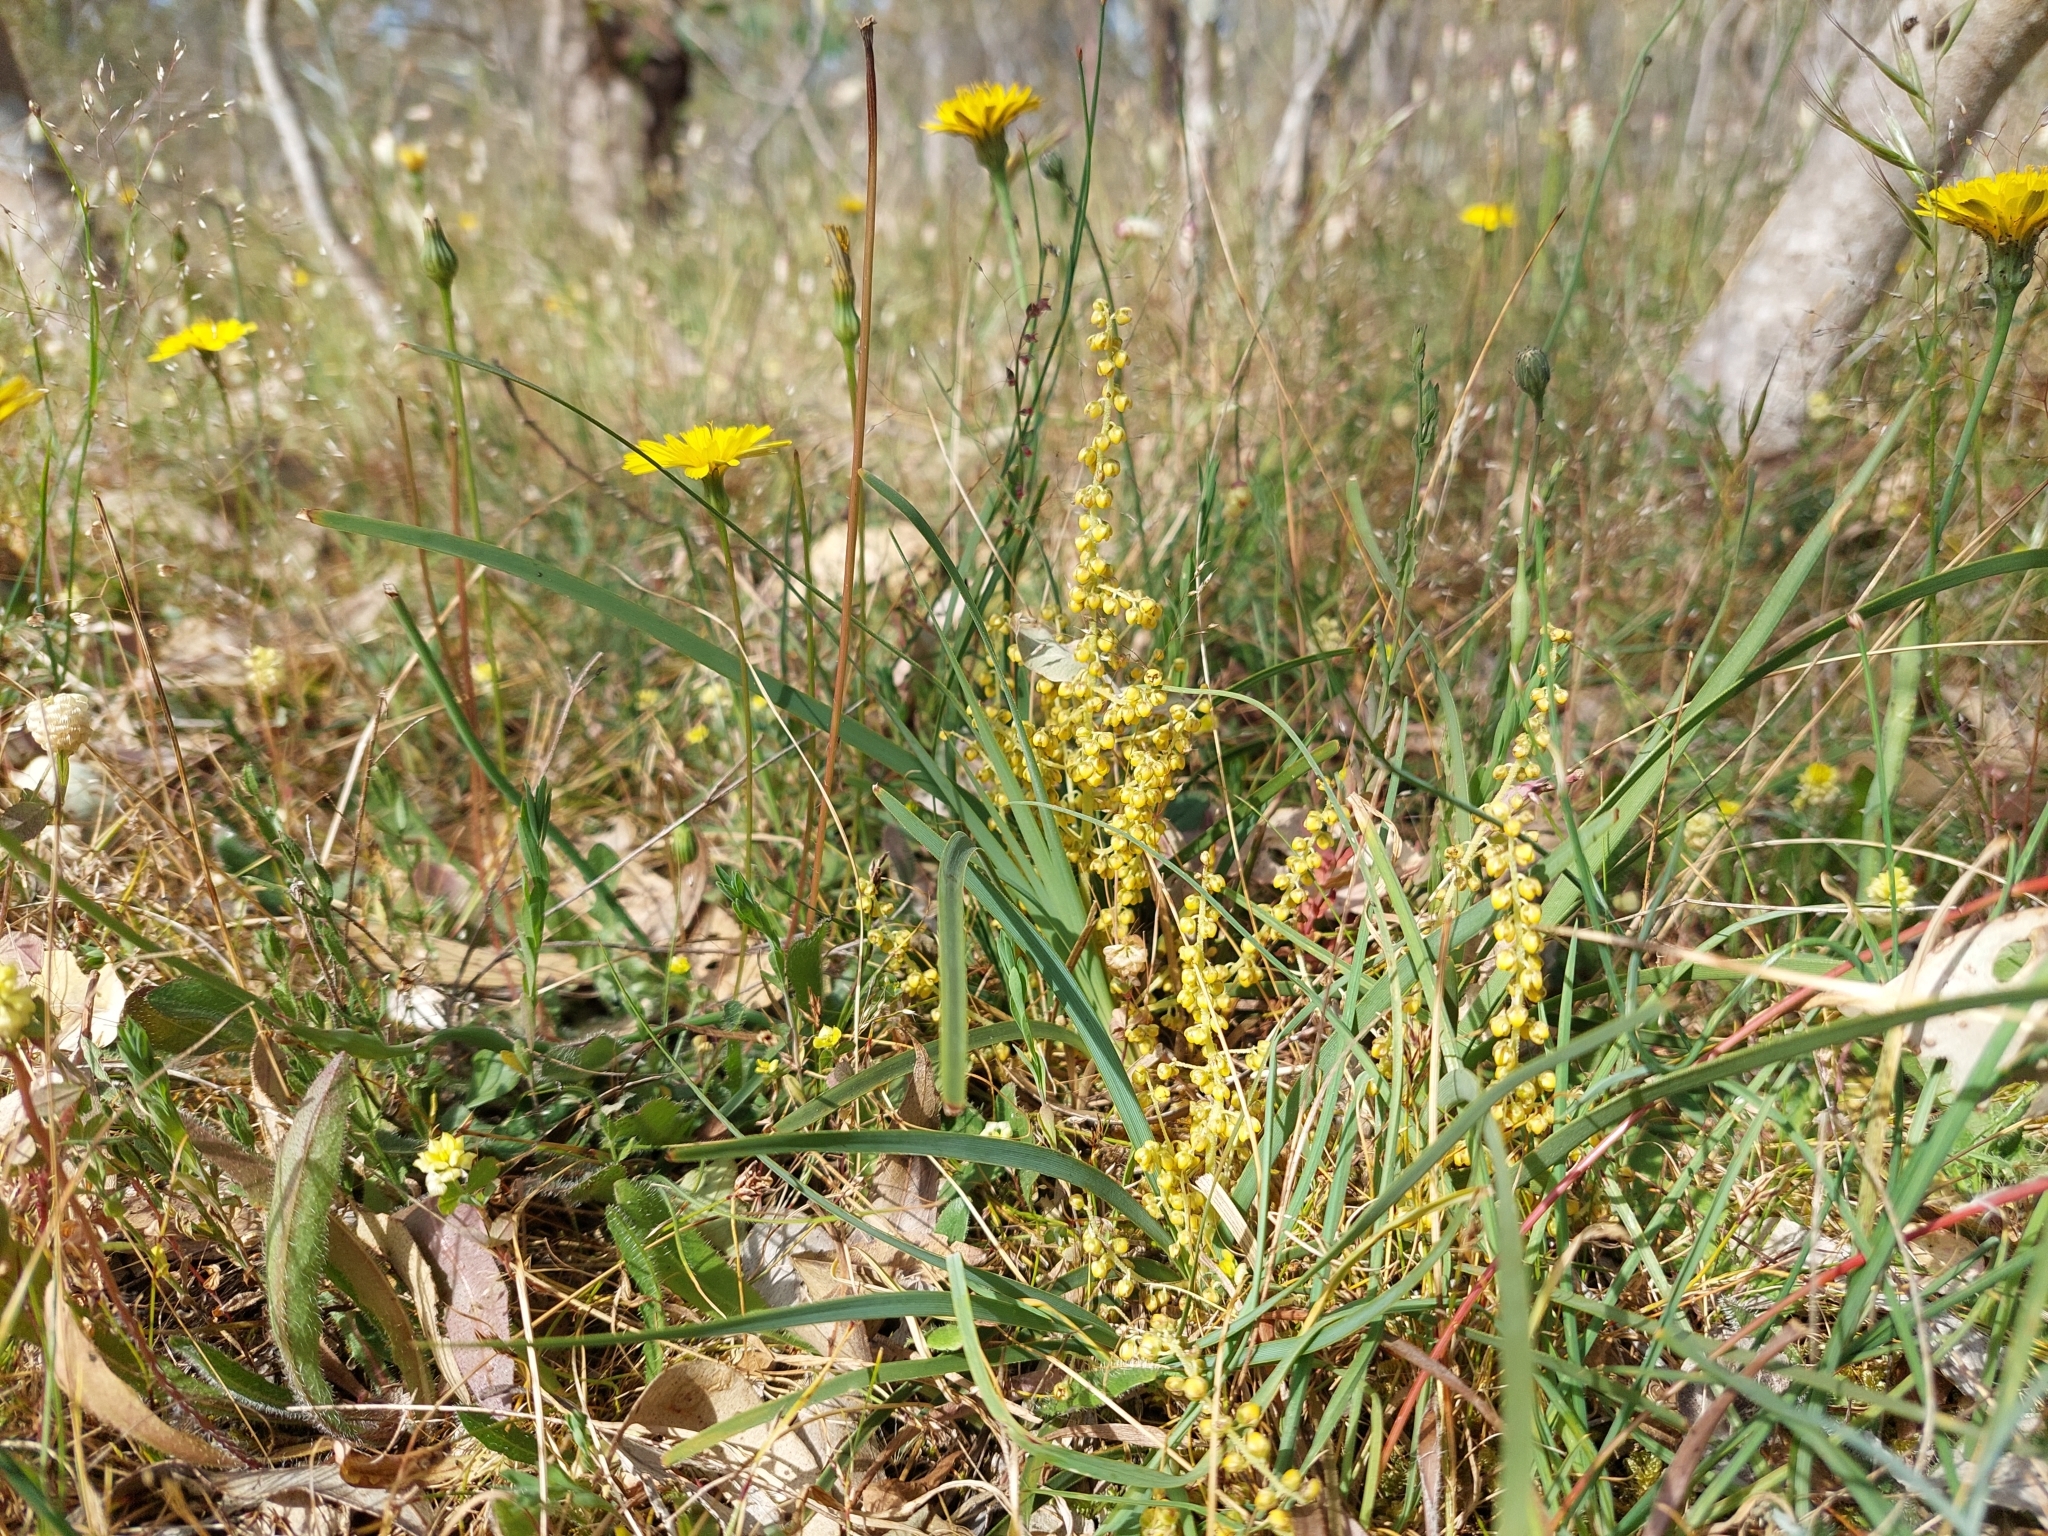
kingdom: Plantae
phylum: Tracheophyta
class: Liliopsida
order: Asparagales
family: Asparagaceae
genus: Lomandra
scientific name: Lomandra filiformis
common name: Wattle mat-rush
